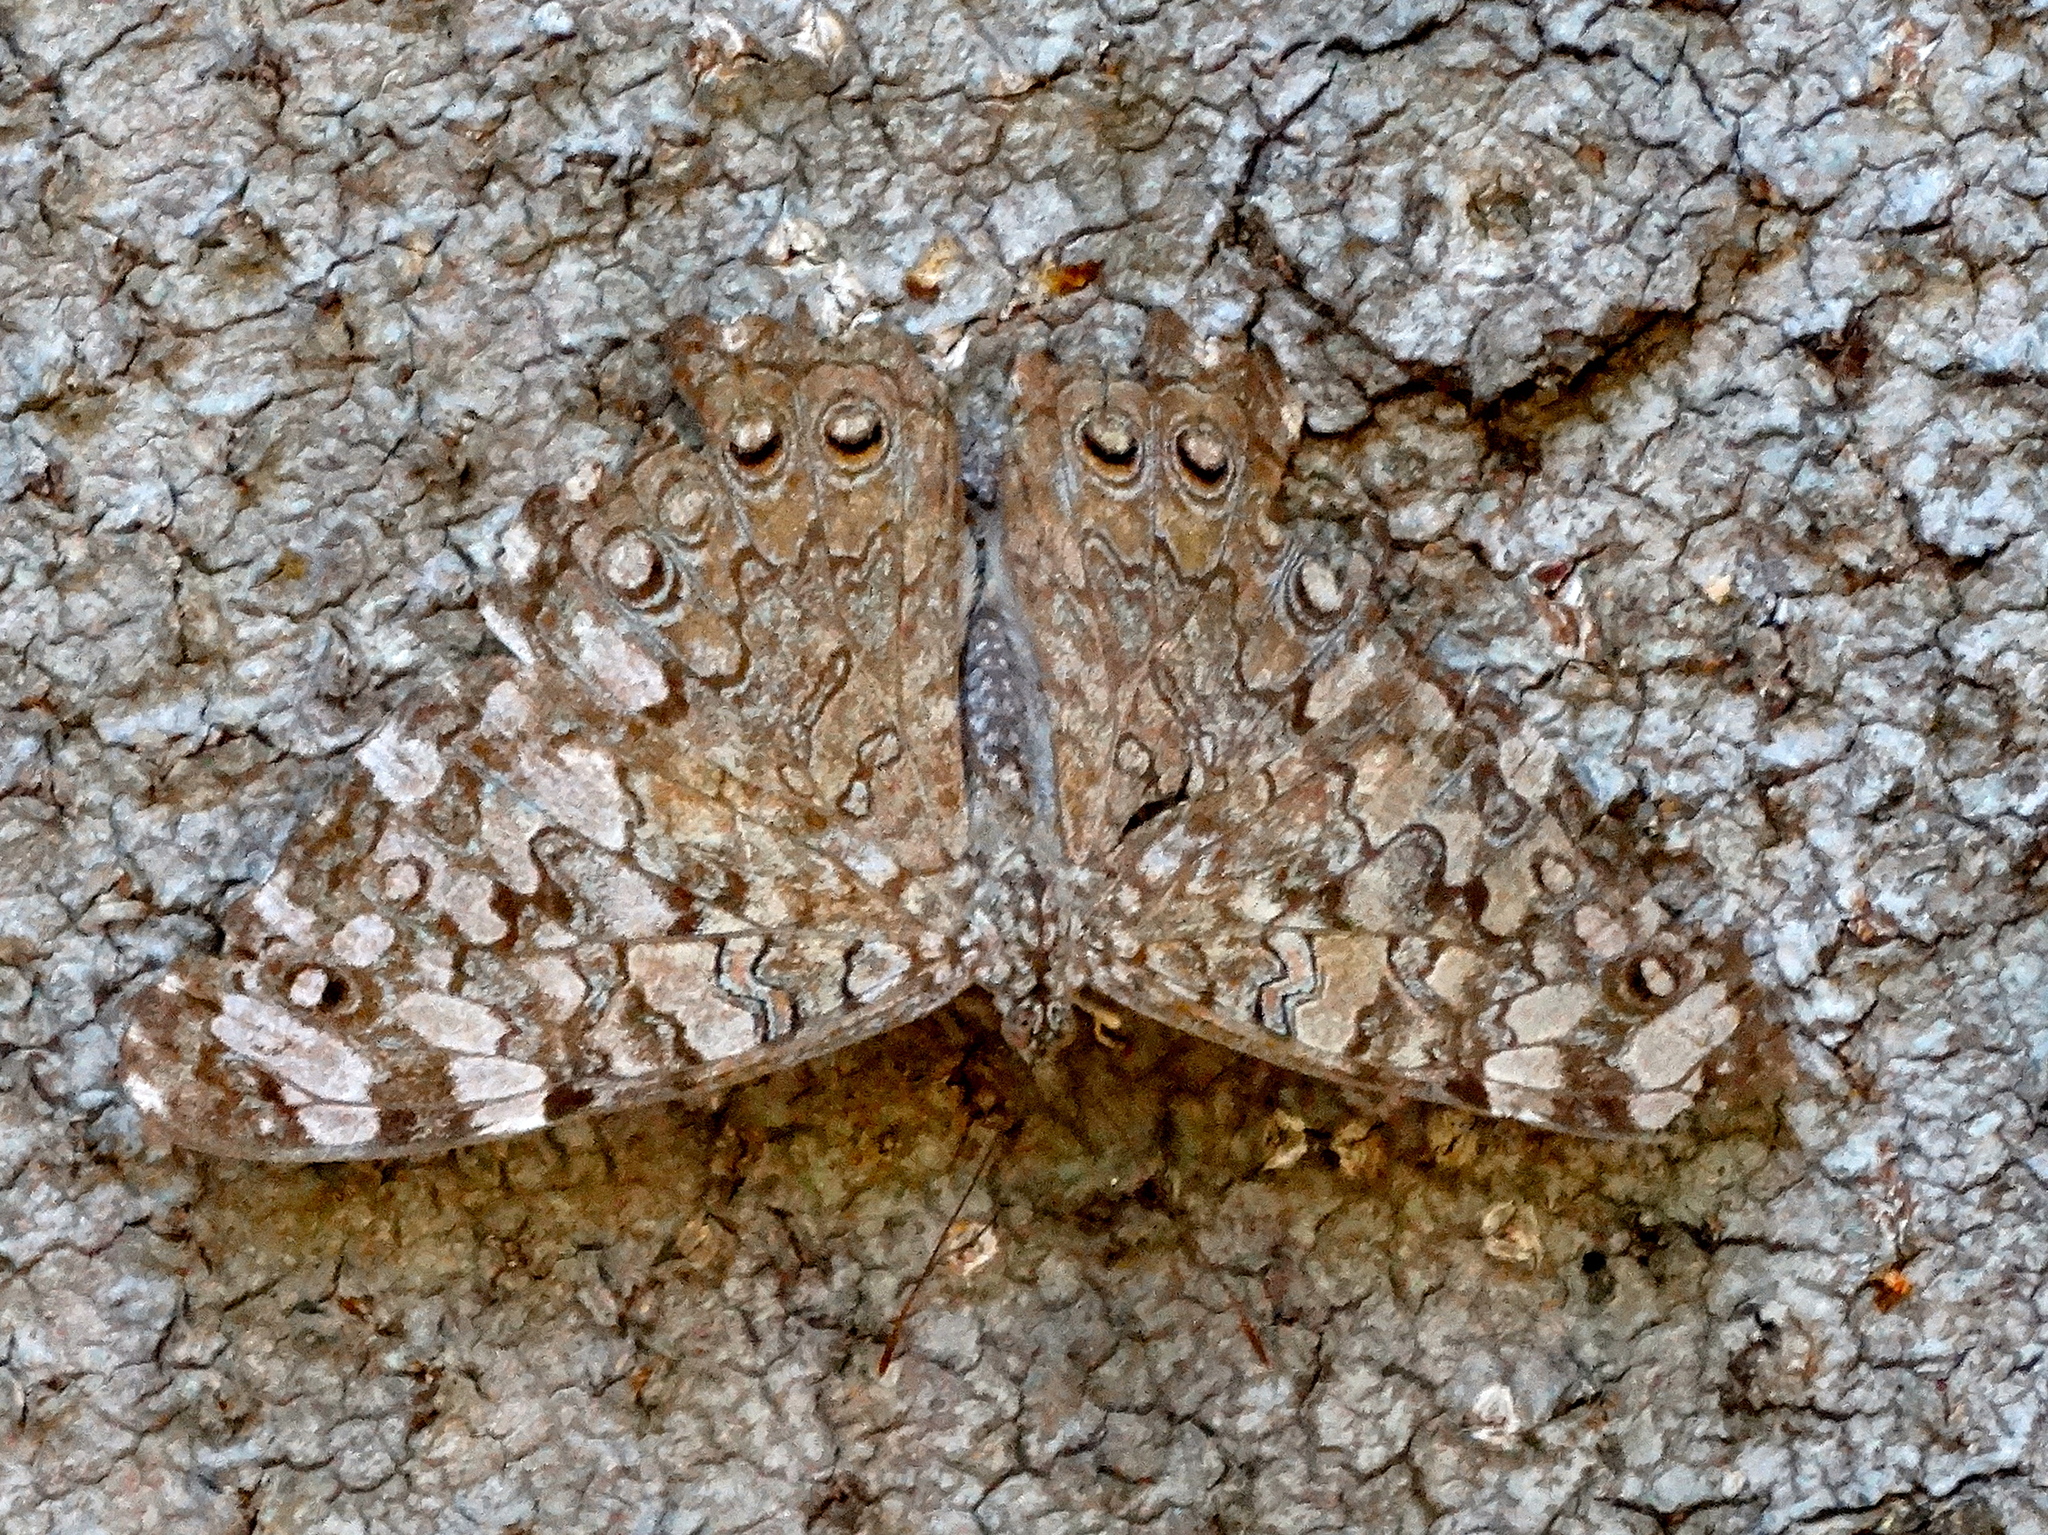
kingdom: Animalia
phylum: Arthropoda
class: Insecta
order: Lepidoptera
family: Nymphalidae
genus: Hamadryas
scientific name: Hamadryas februa
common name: Gray cracker
